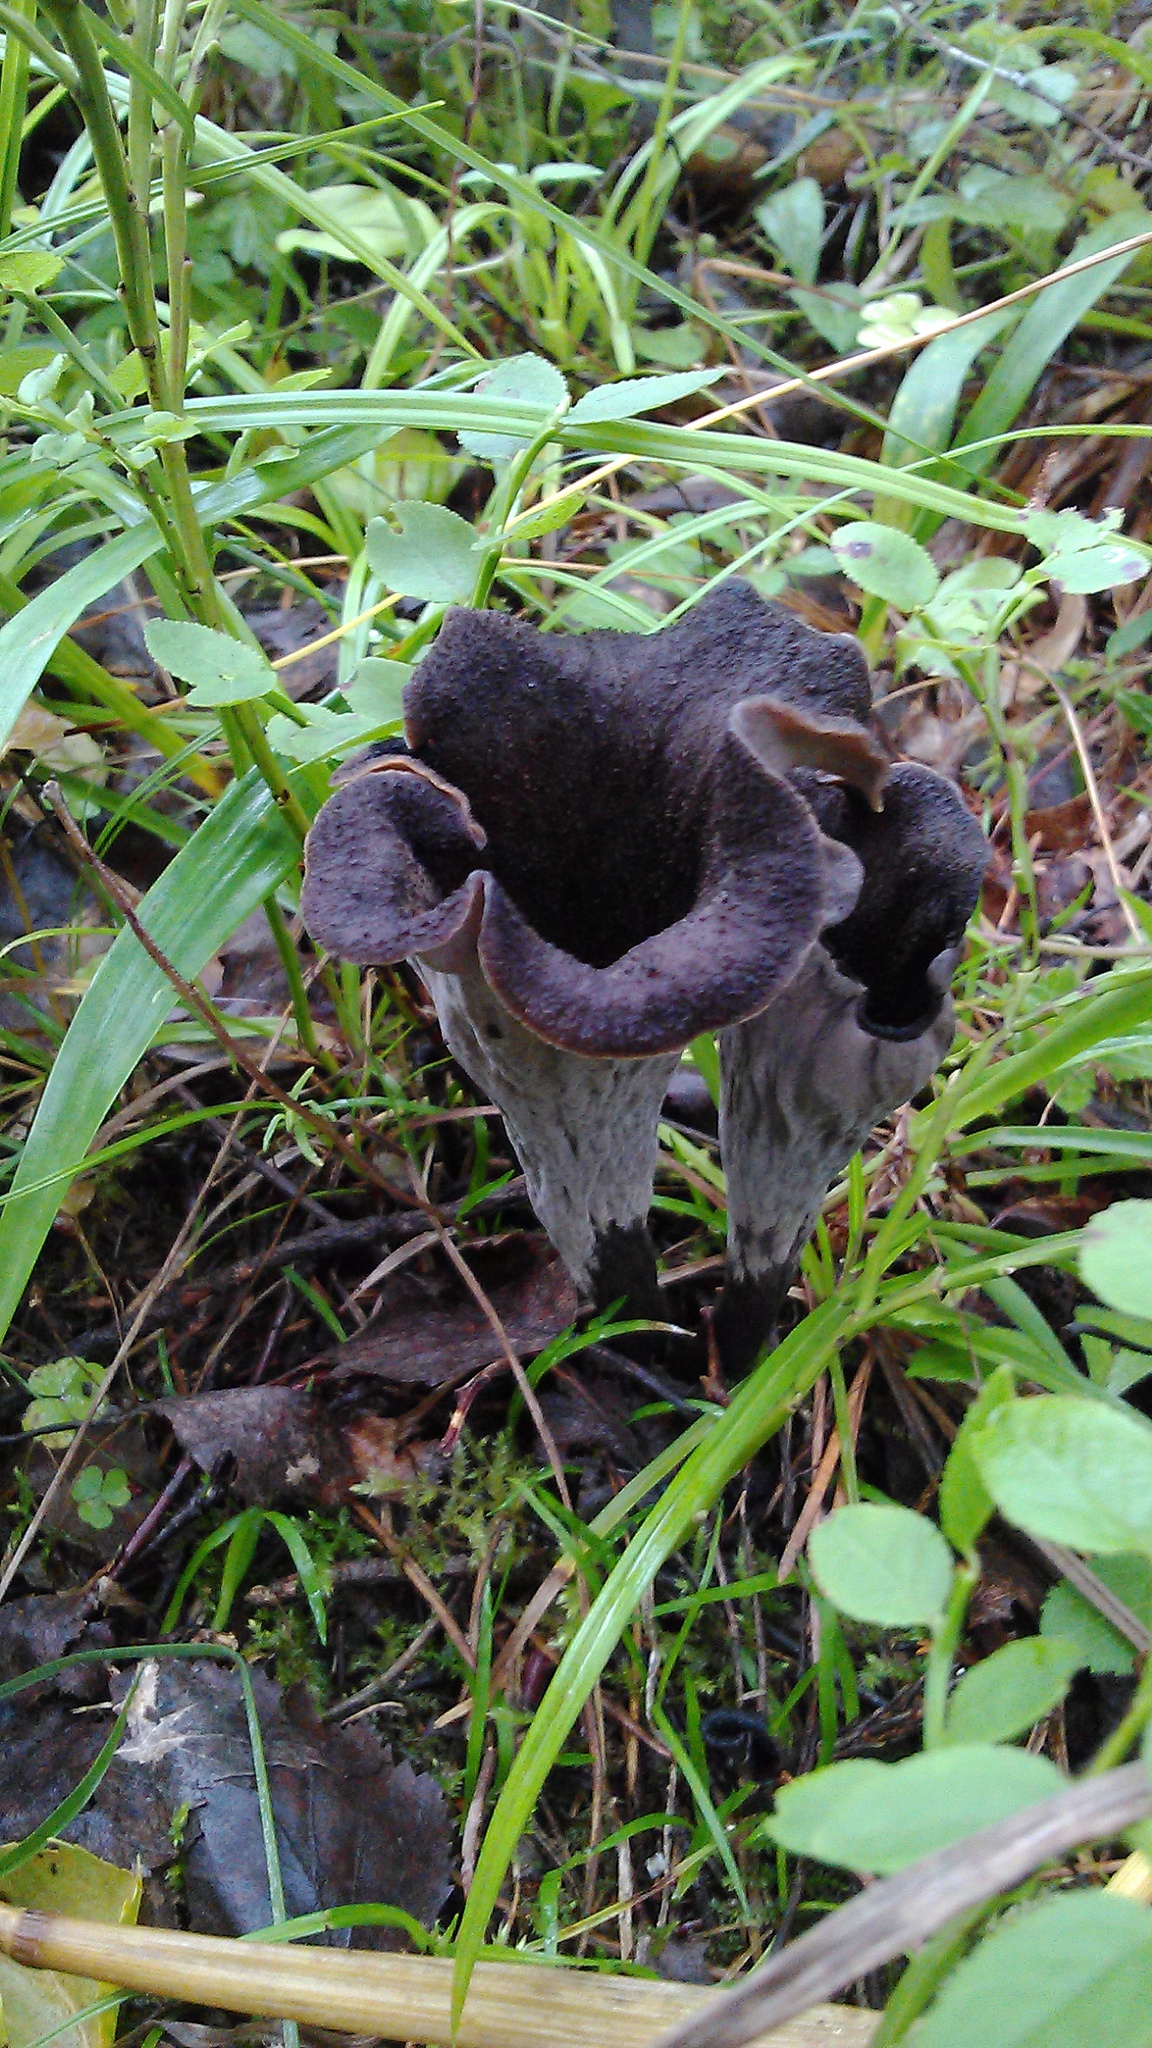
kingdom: Fungi
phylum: Basidiomycota
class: Agaricomycetes
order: Cantharellales
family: Hydnaceae
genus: Craterellus
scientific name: Craterellus cornucopioides
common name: Horn of plenty
